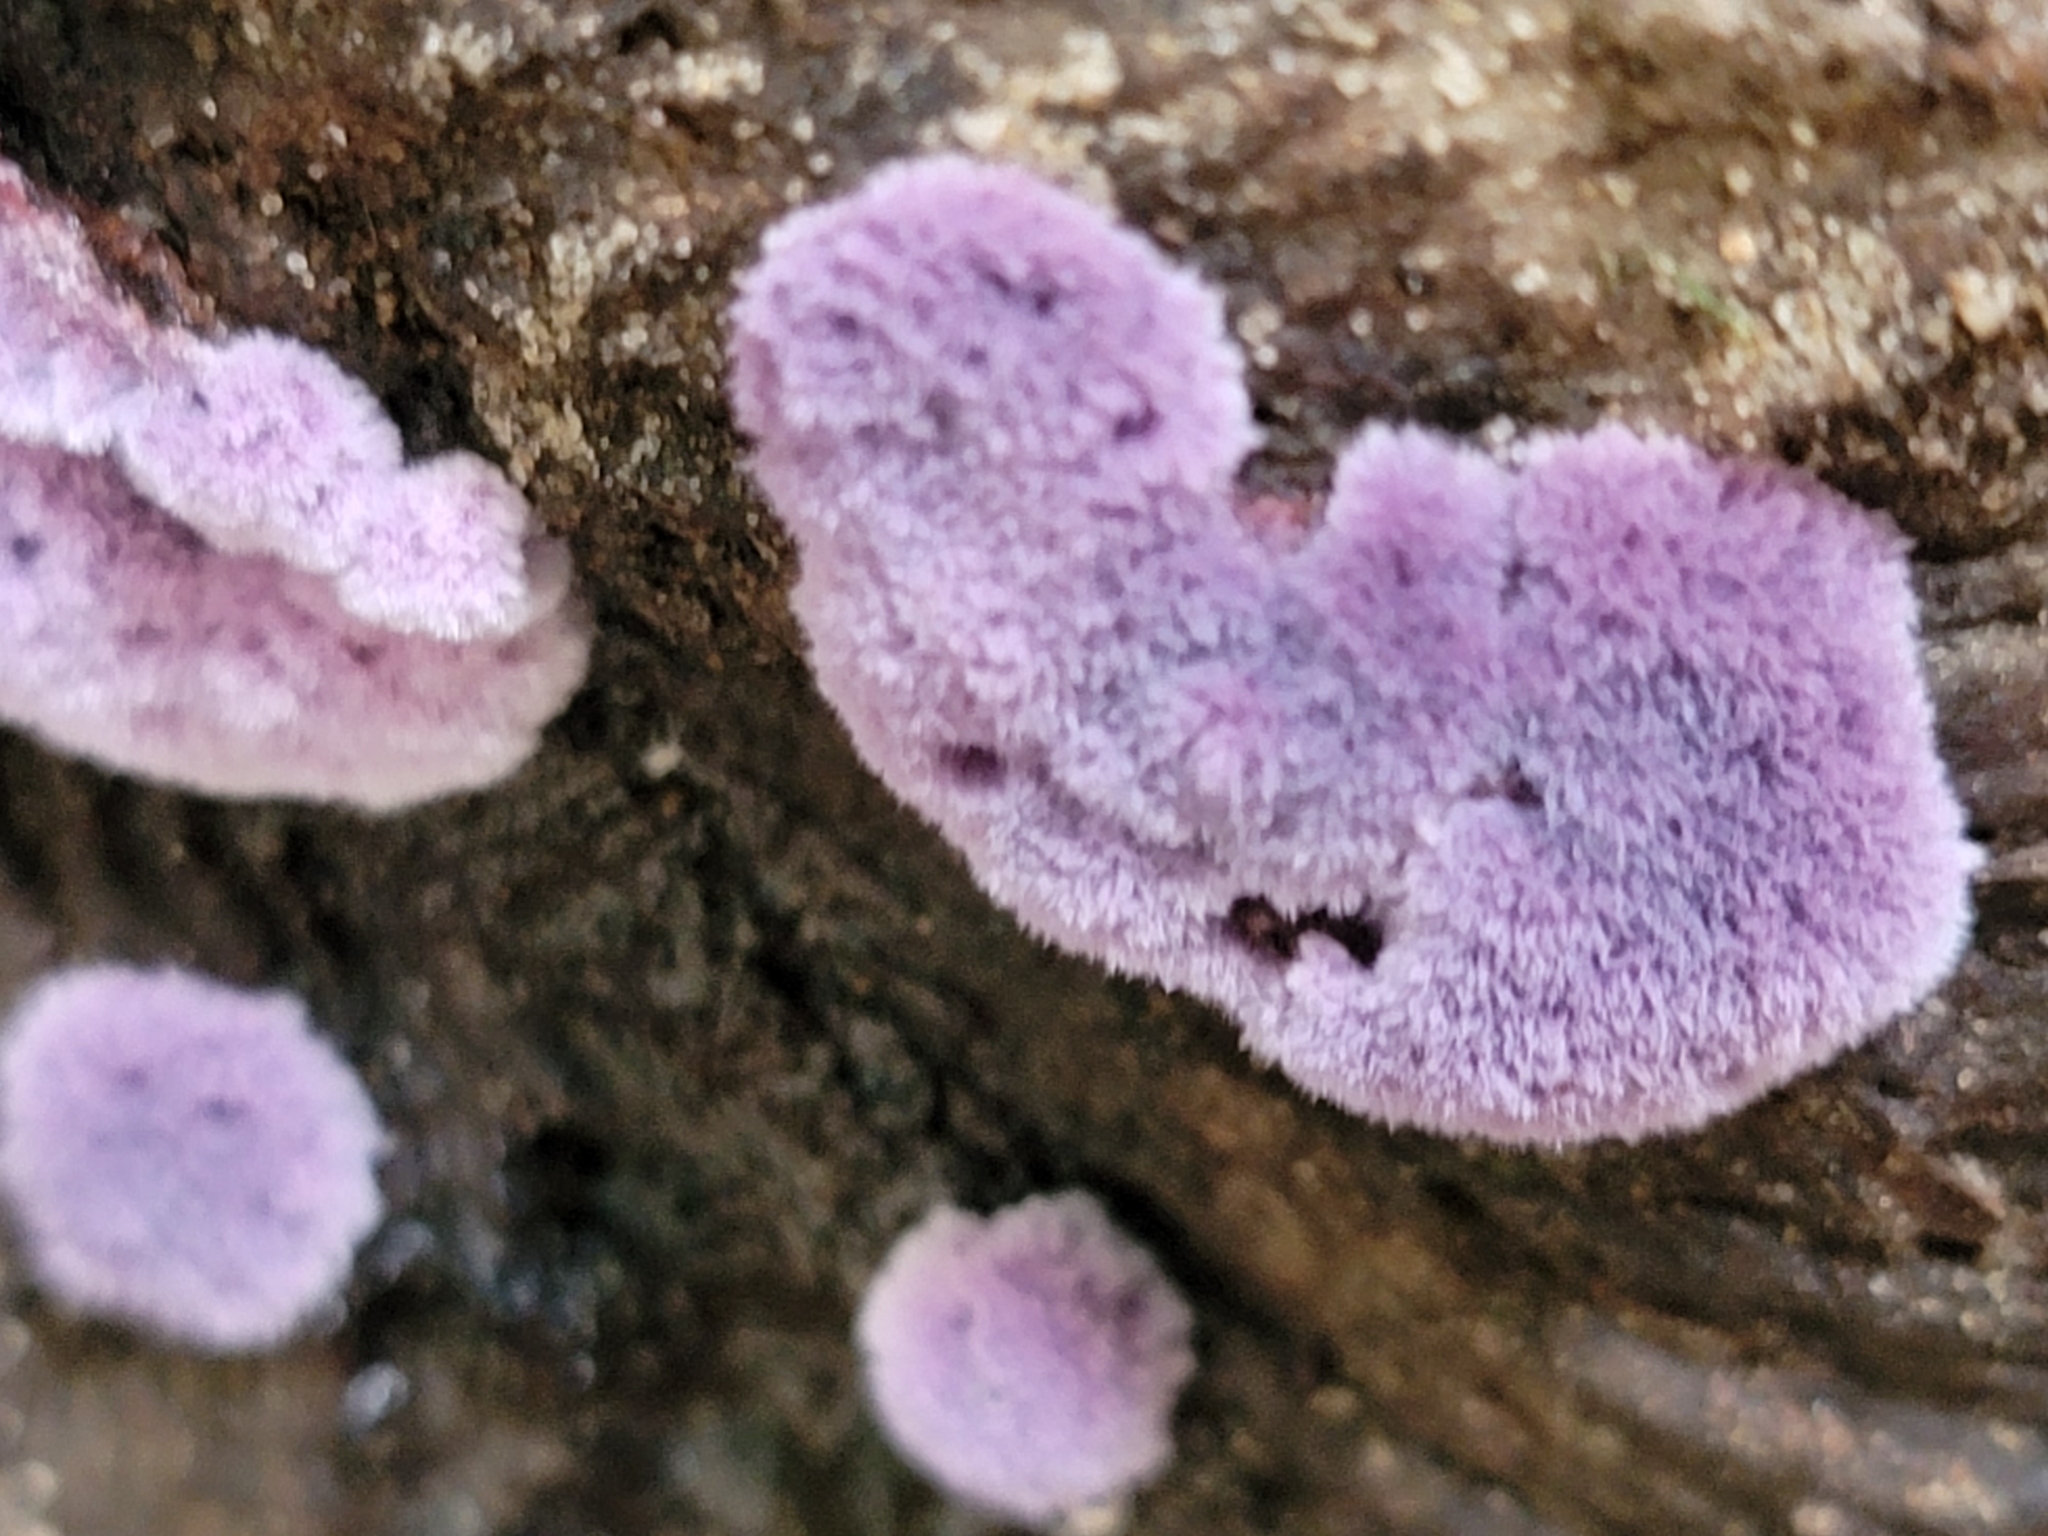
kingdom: Fungi
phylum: Basidiomycota
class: Agaricomycetes
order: Corticiales
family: Punctulariaceae
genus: Punctularia
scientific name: Punctularia atropurpurascens
